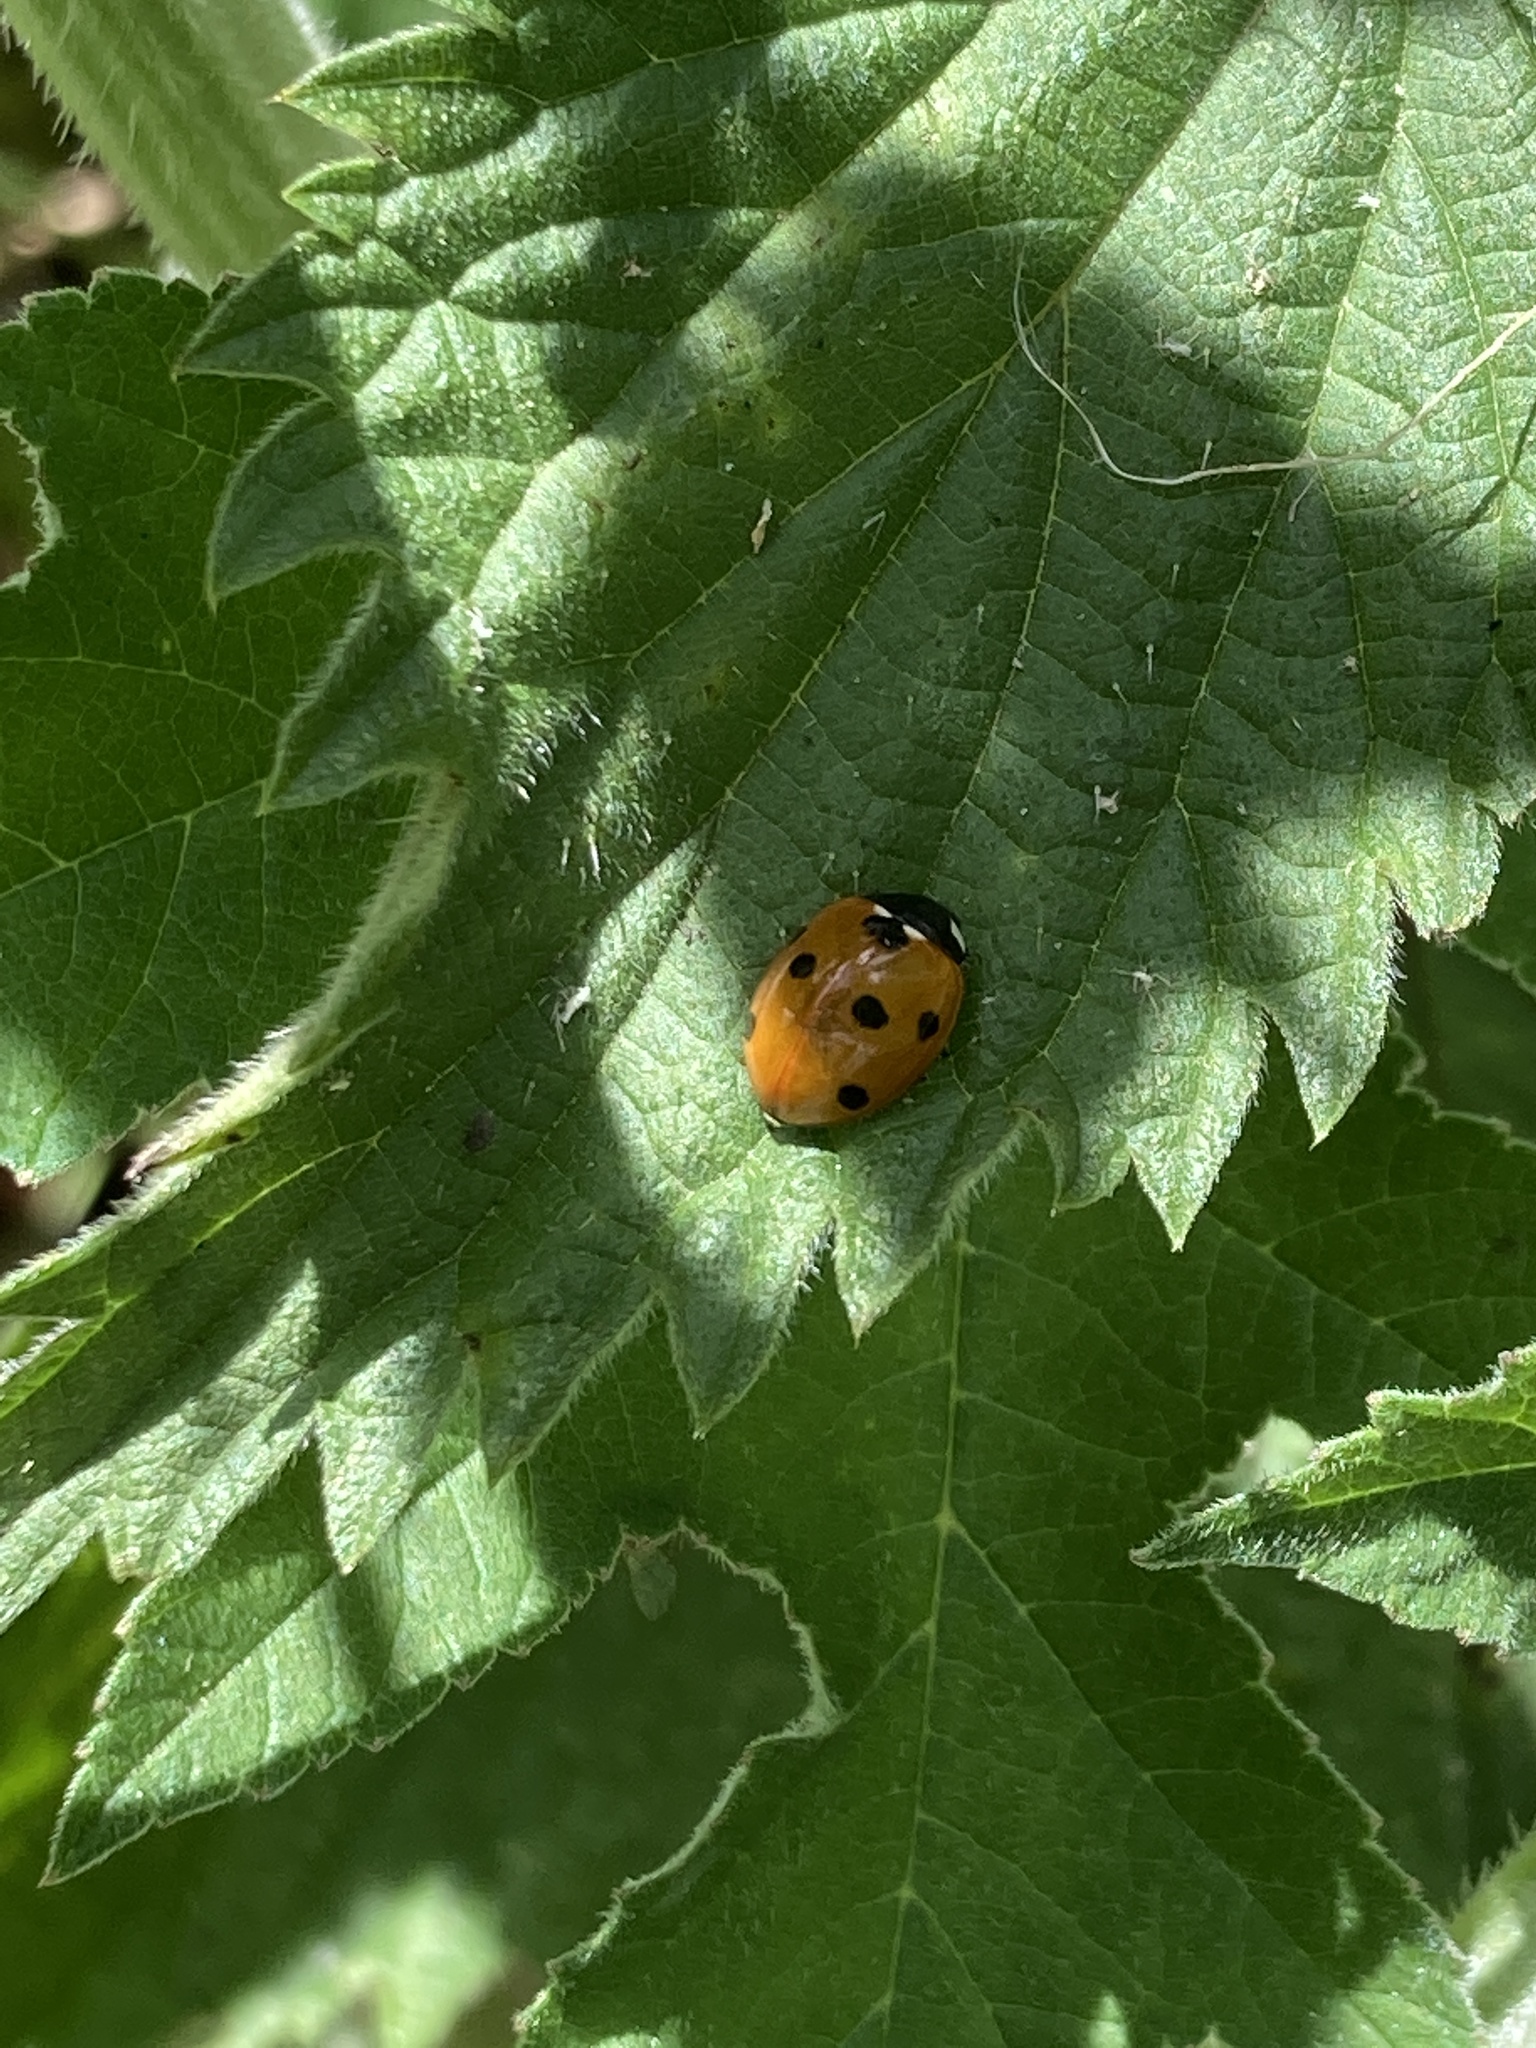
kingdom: Animalia
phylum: Arthropoda
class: Insecta
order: Coleoptera
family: Coccinellidae
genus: Coccinella
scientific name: Coccinella septempunctata
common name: Sevenspotted lady beetle
